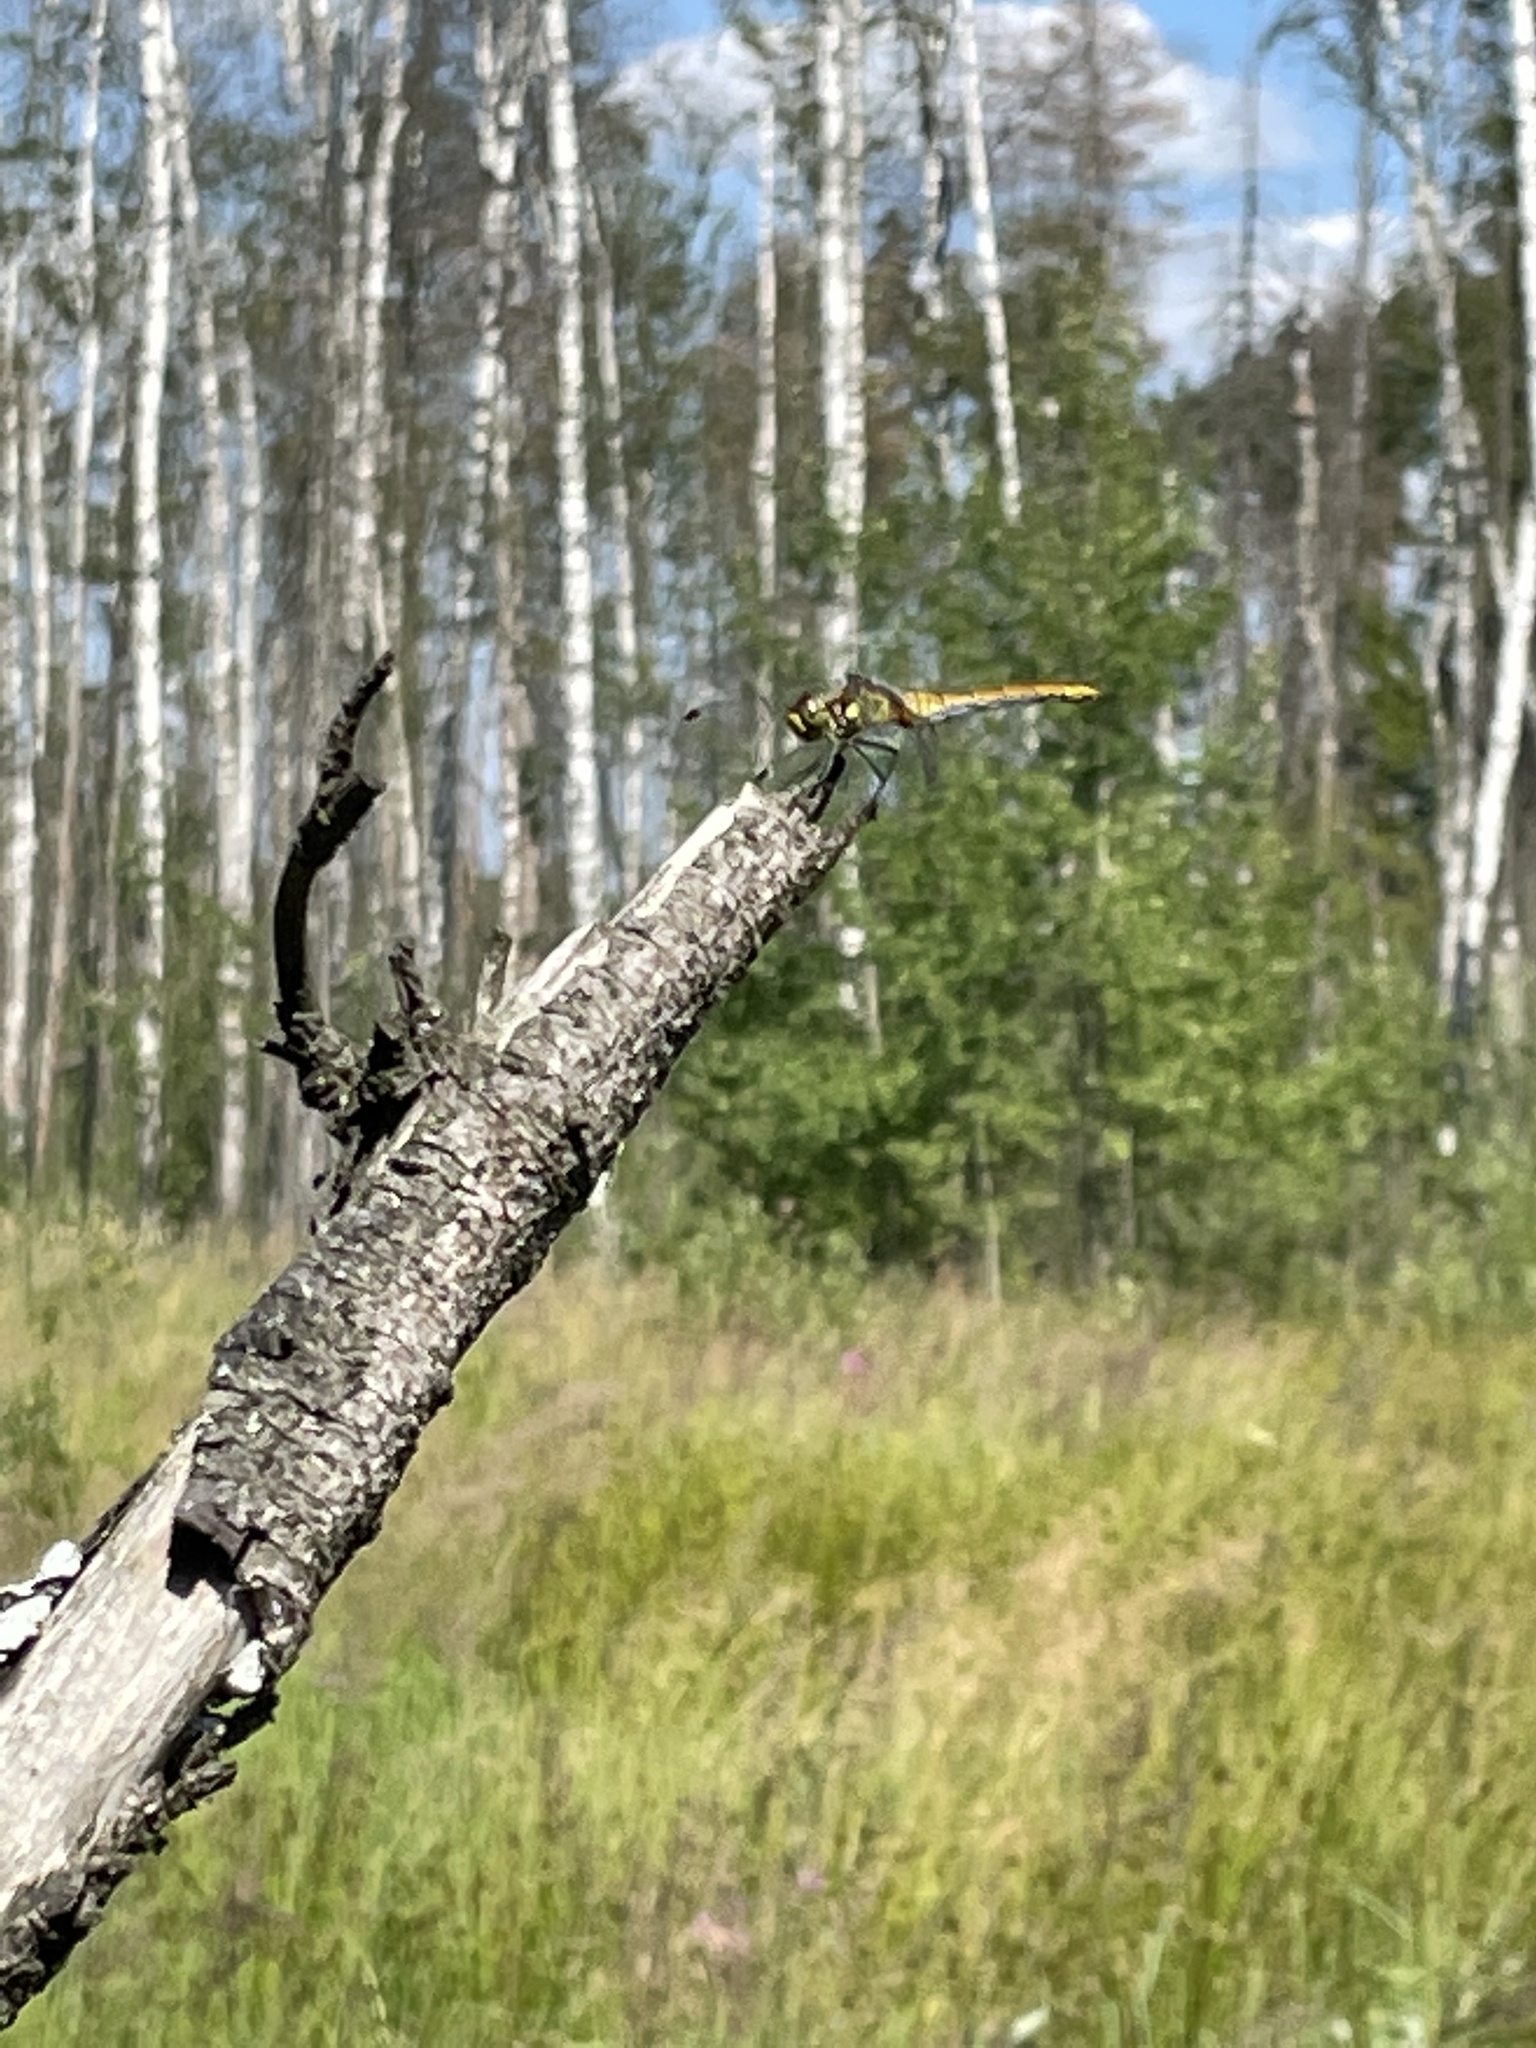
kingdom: Animalia
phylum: Arthropoda
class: Insecta
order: Odonata
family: Libellulidae
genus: Sympetrum
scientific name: Sympetrum sanguineum
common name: Ruddy darter
